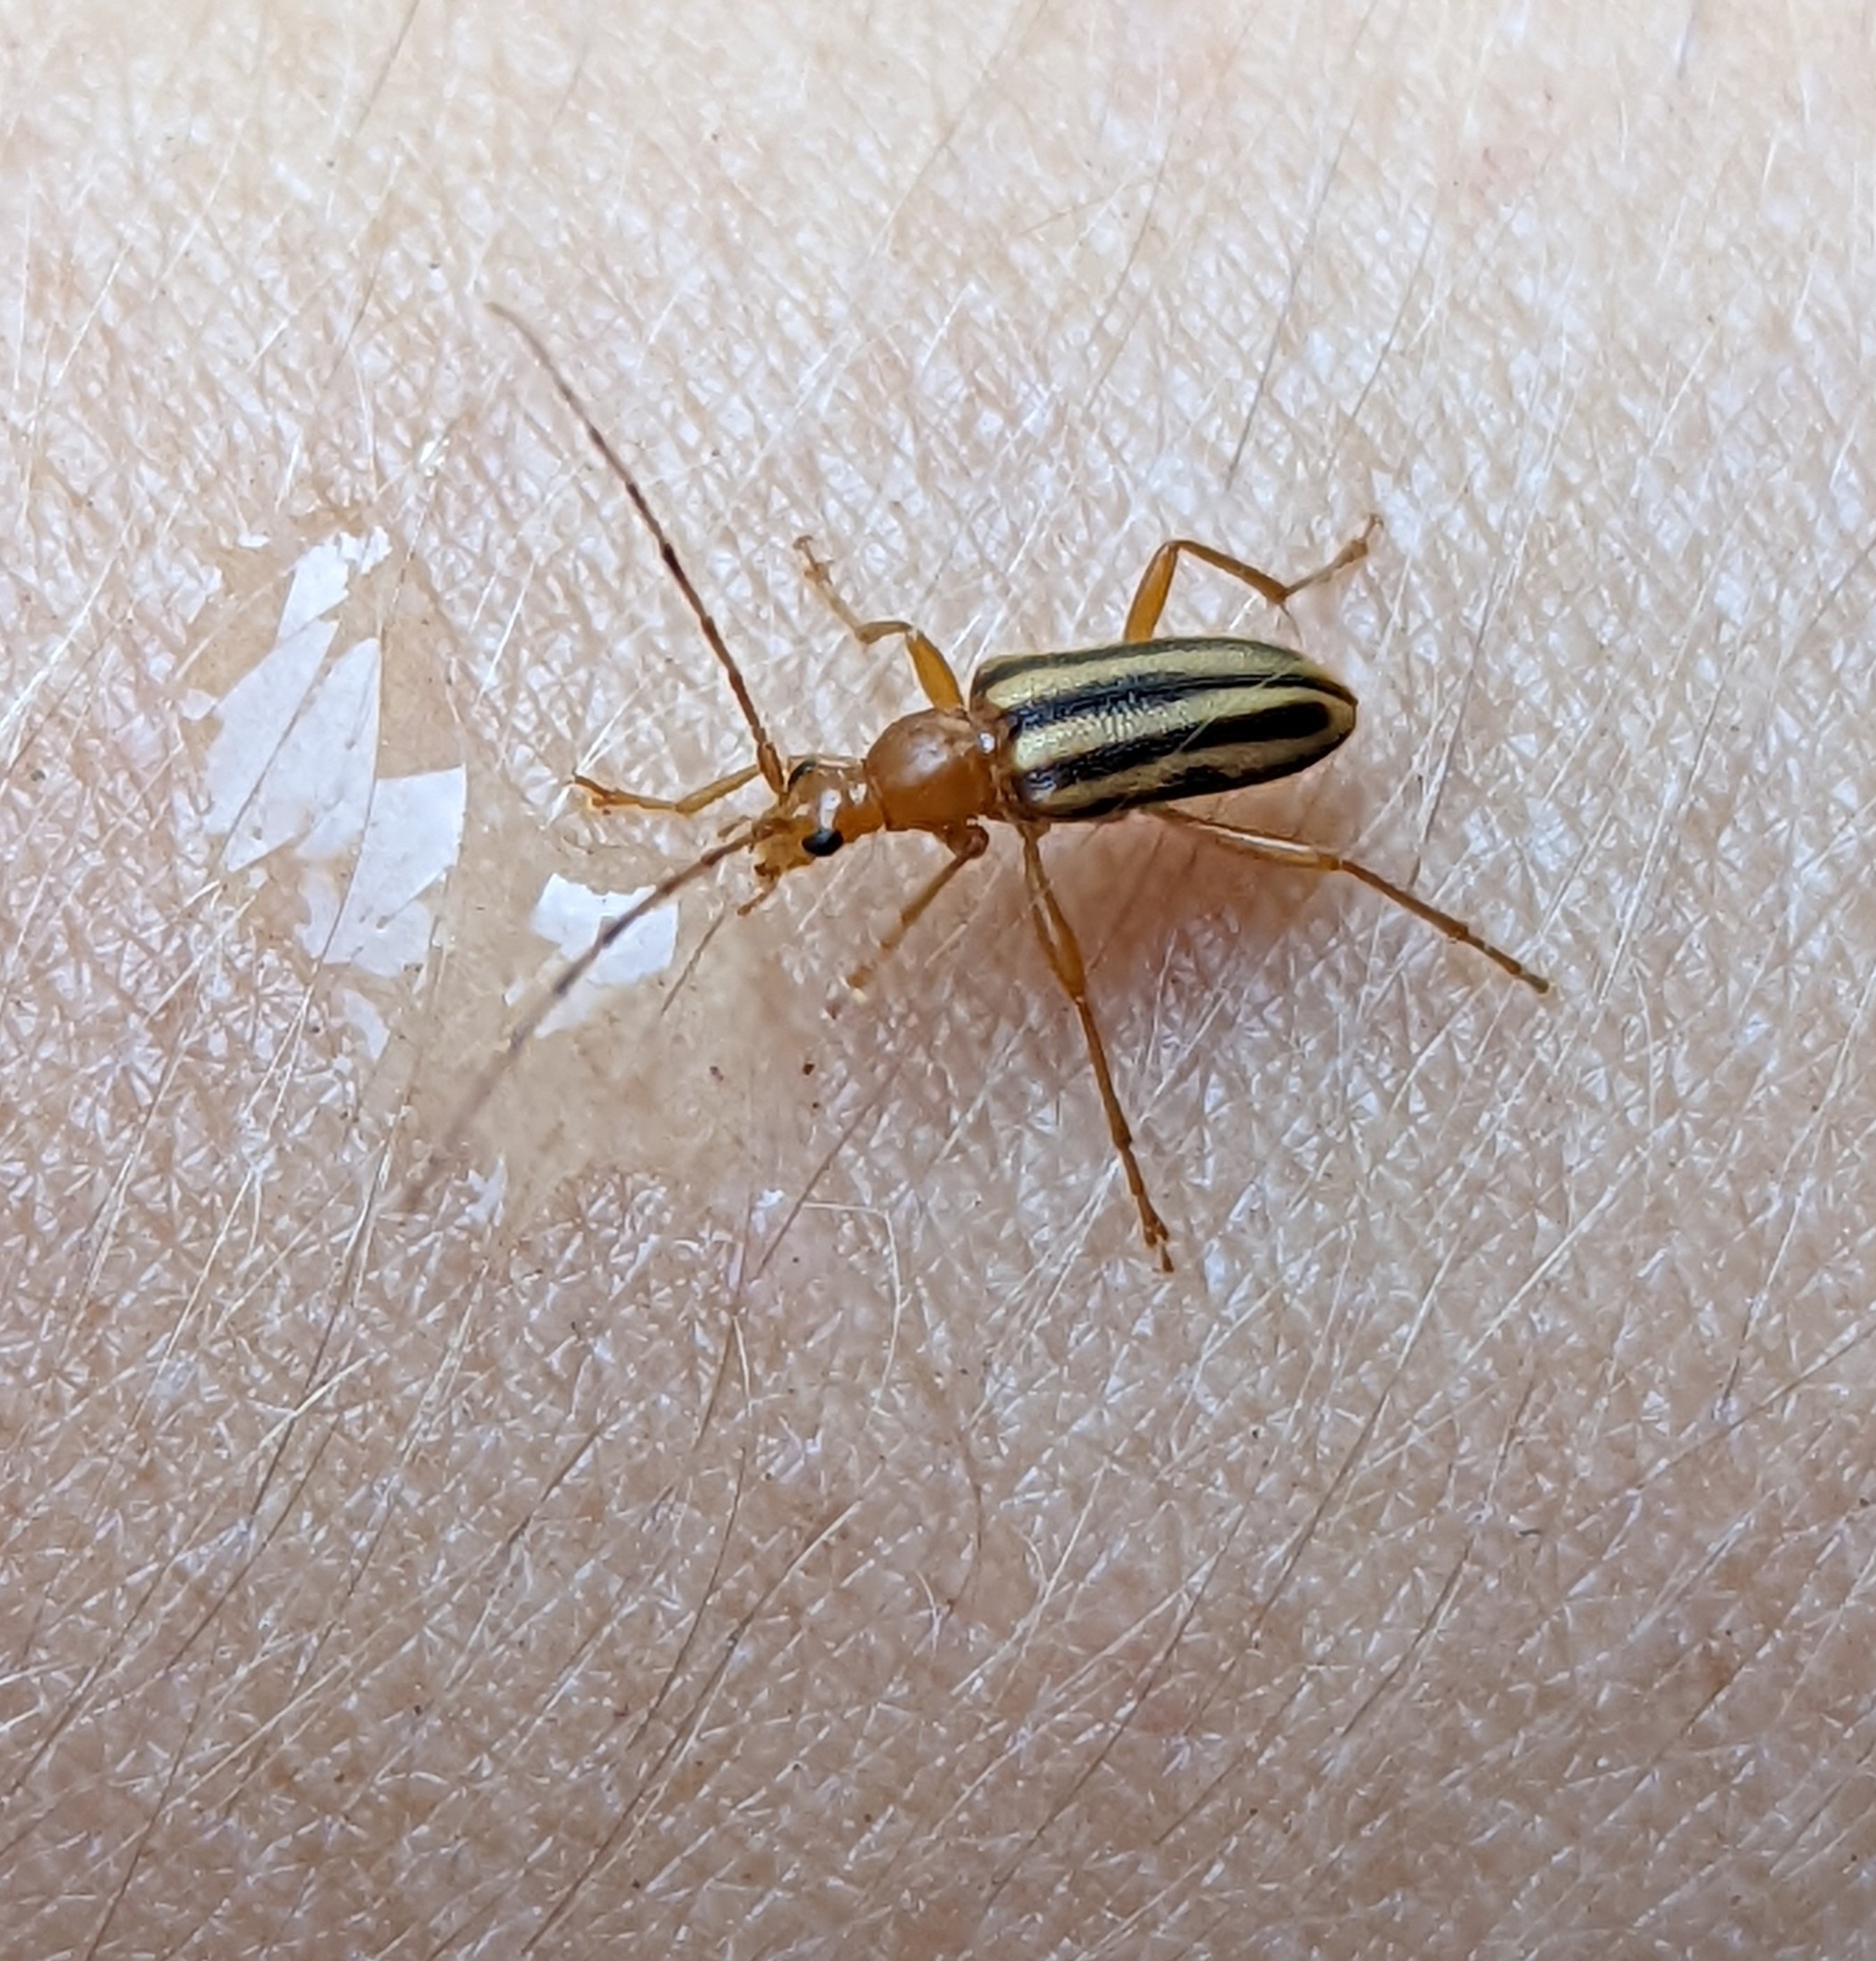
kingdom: Animalia
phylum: Arthropoda
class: Insecta
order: Coleoptera
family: Cerambycidae
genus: Metacmaeops
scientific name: Metacmaeops vittata
